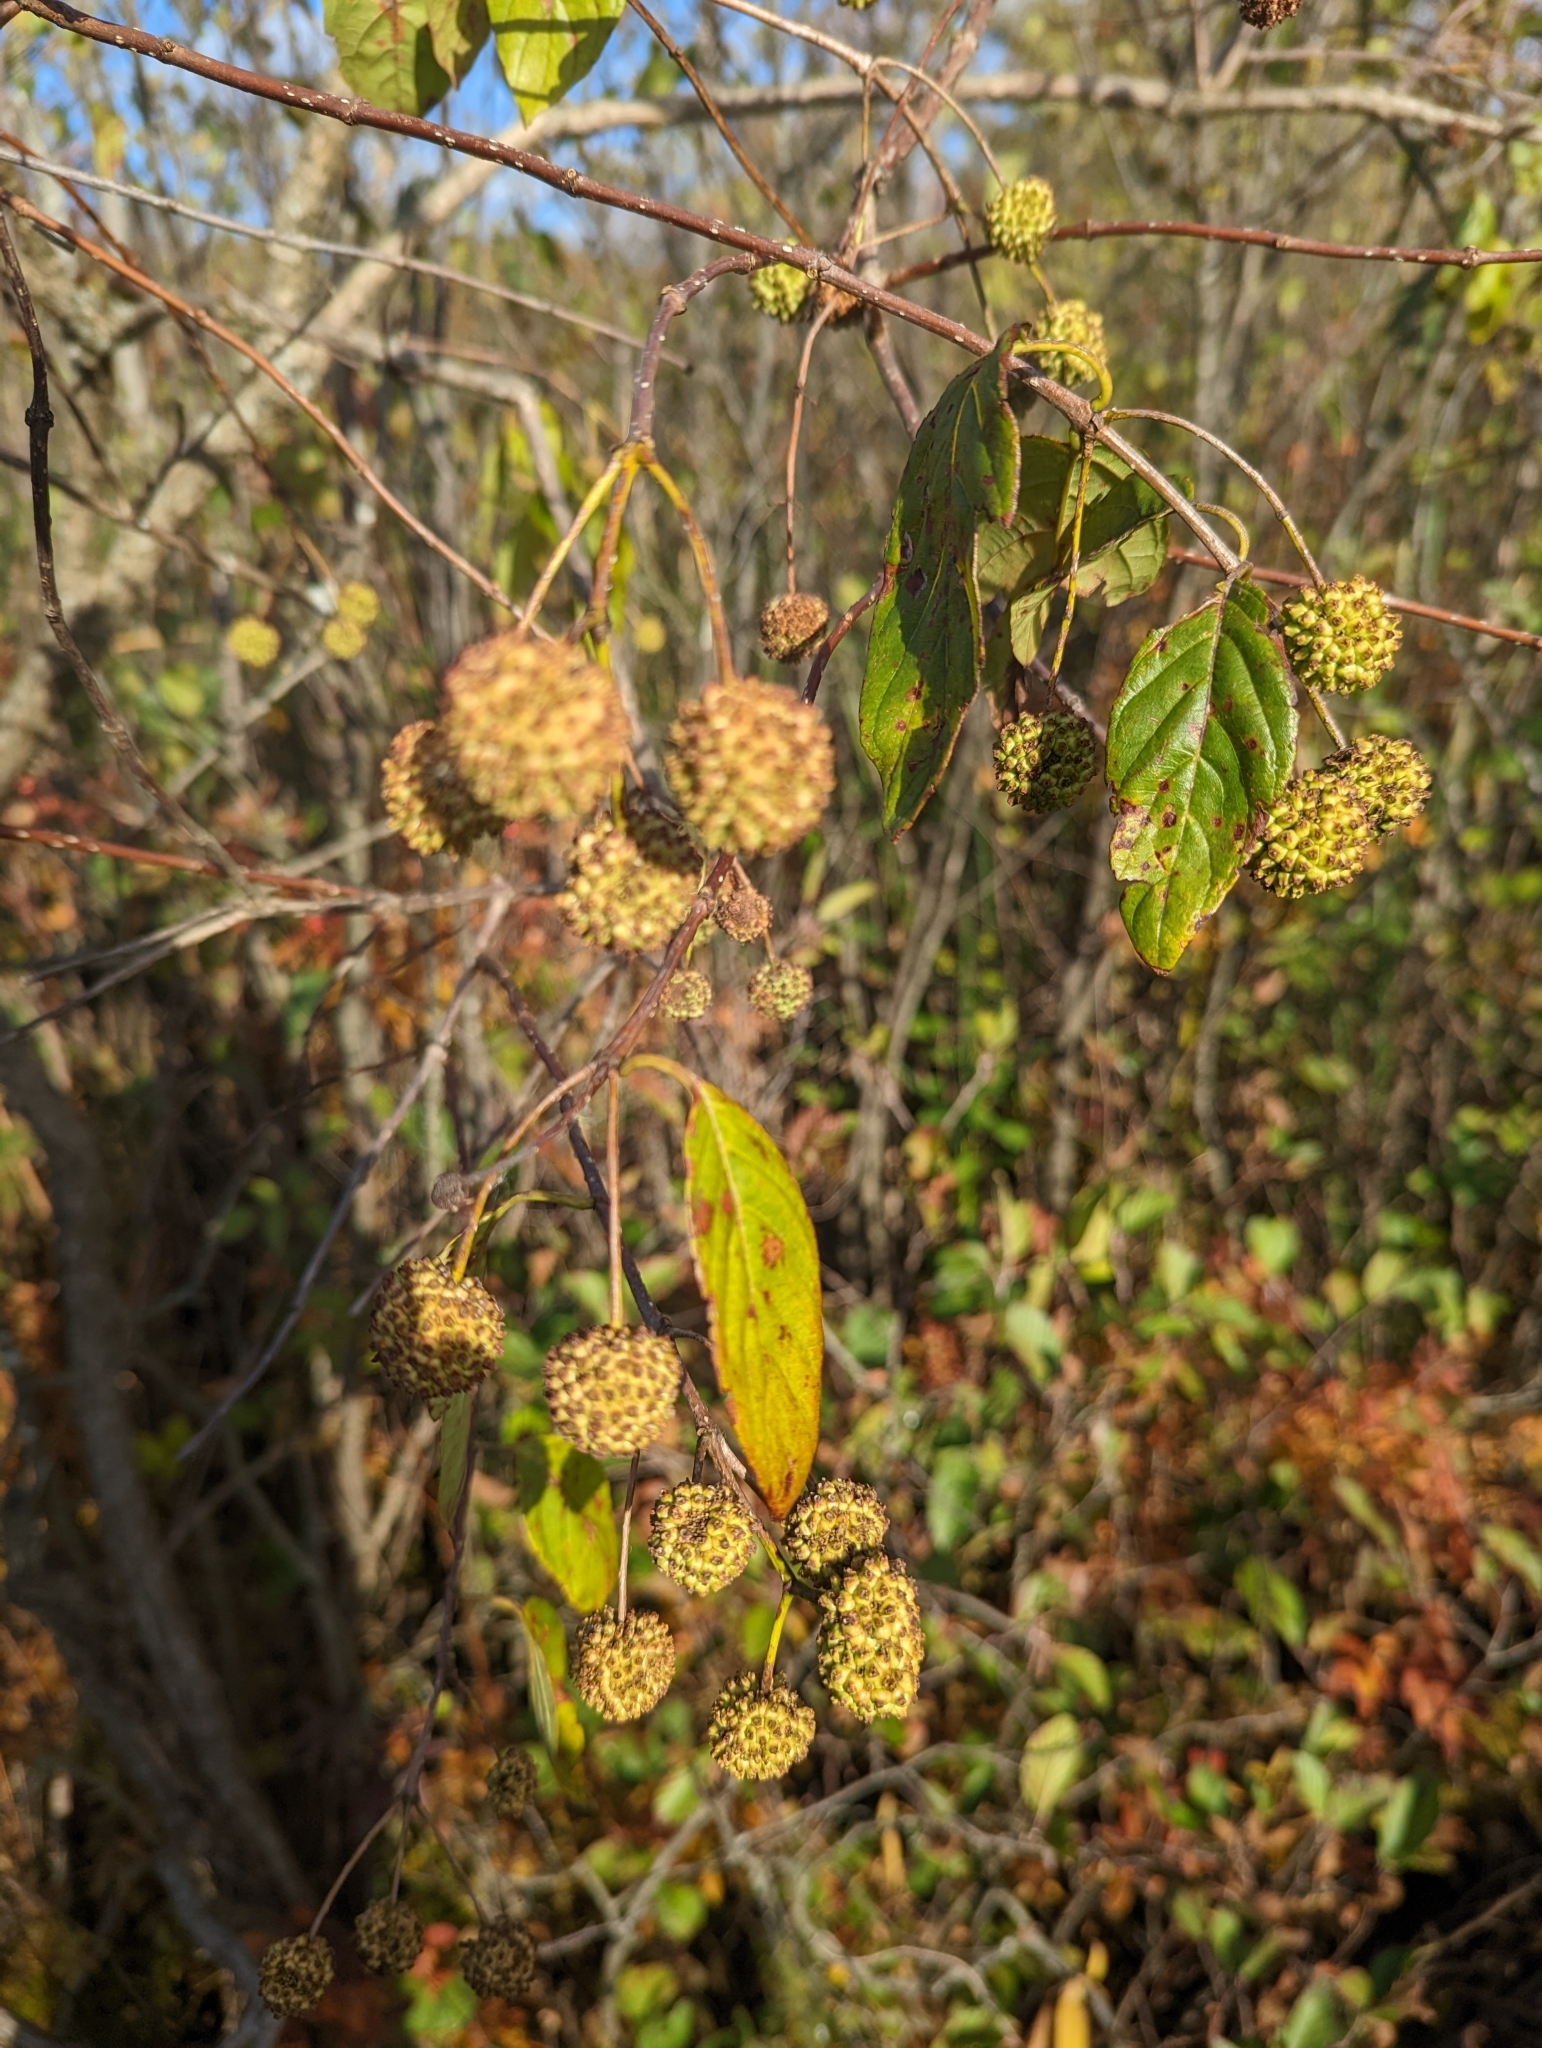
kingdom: Plantae
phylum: Tracheophyta
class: Magnoliopsida
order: Gentianales
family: Rubiaceae
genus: Cephalanthus
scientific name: Cephalanthus occidentalis
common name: Button-willow
